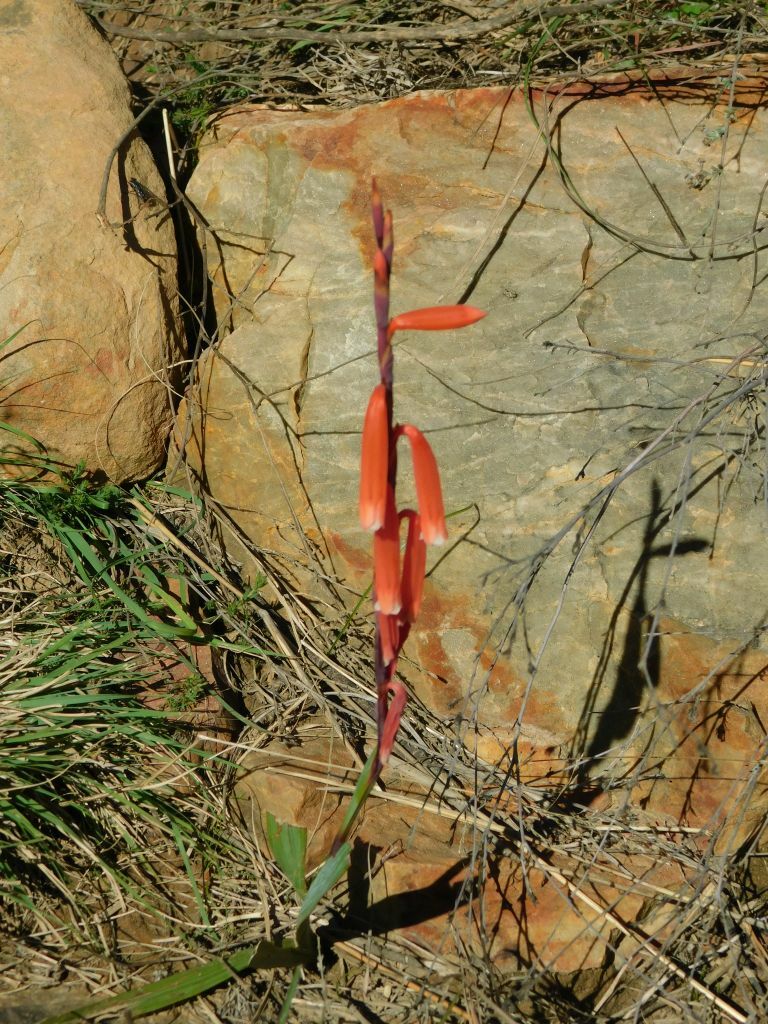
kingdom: Plantae
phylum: Tracheophyta
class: Liliopsida
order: Asparagales
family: Iridaceae
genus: Watsonia
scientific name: Watsonia aletroides
